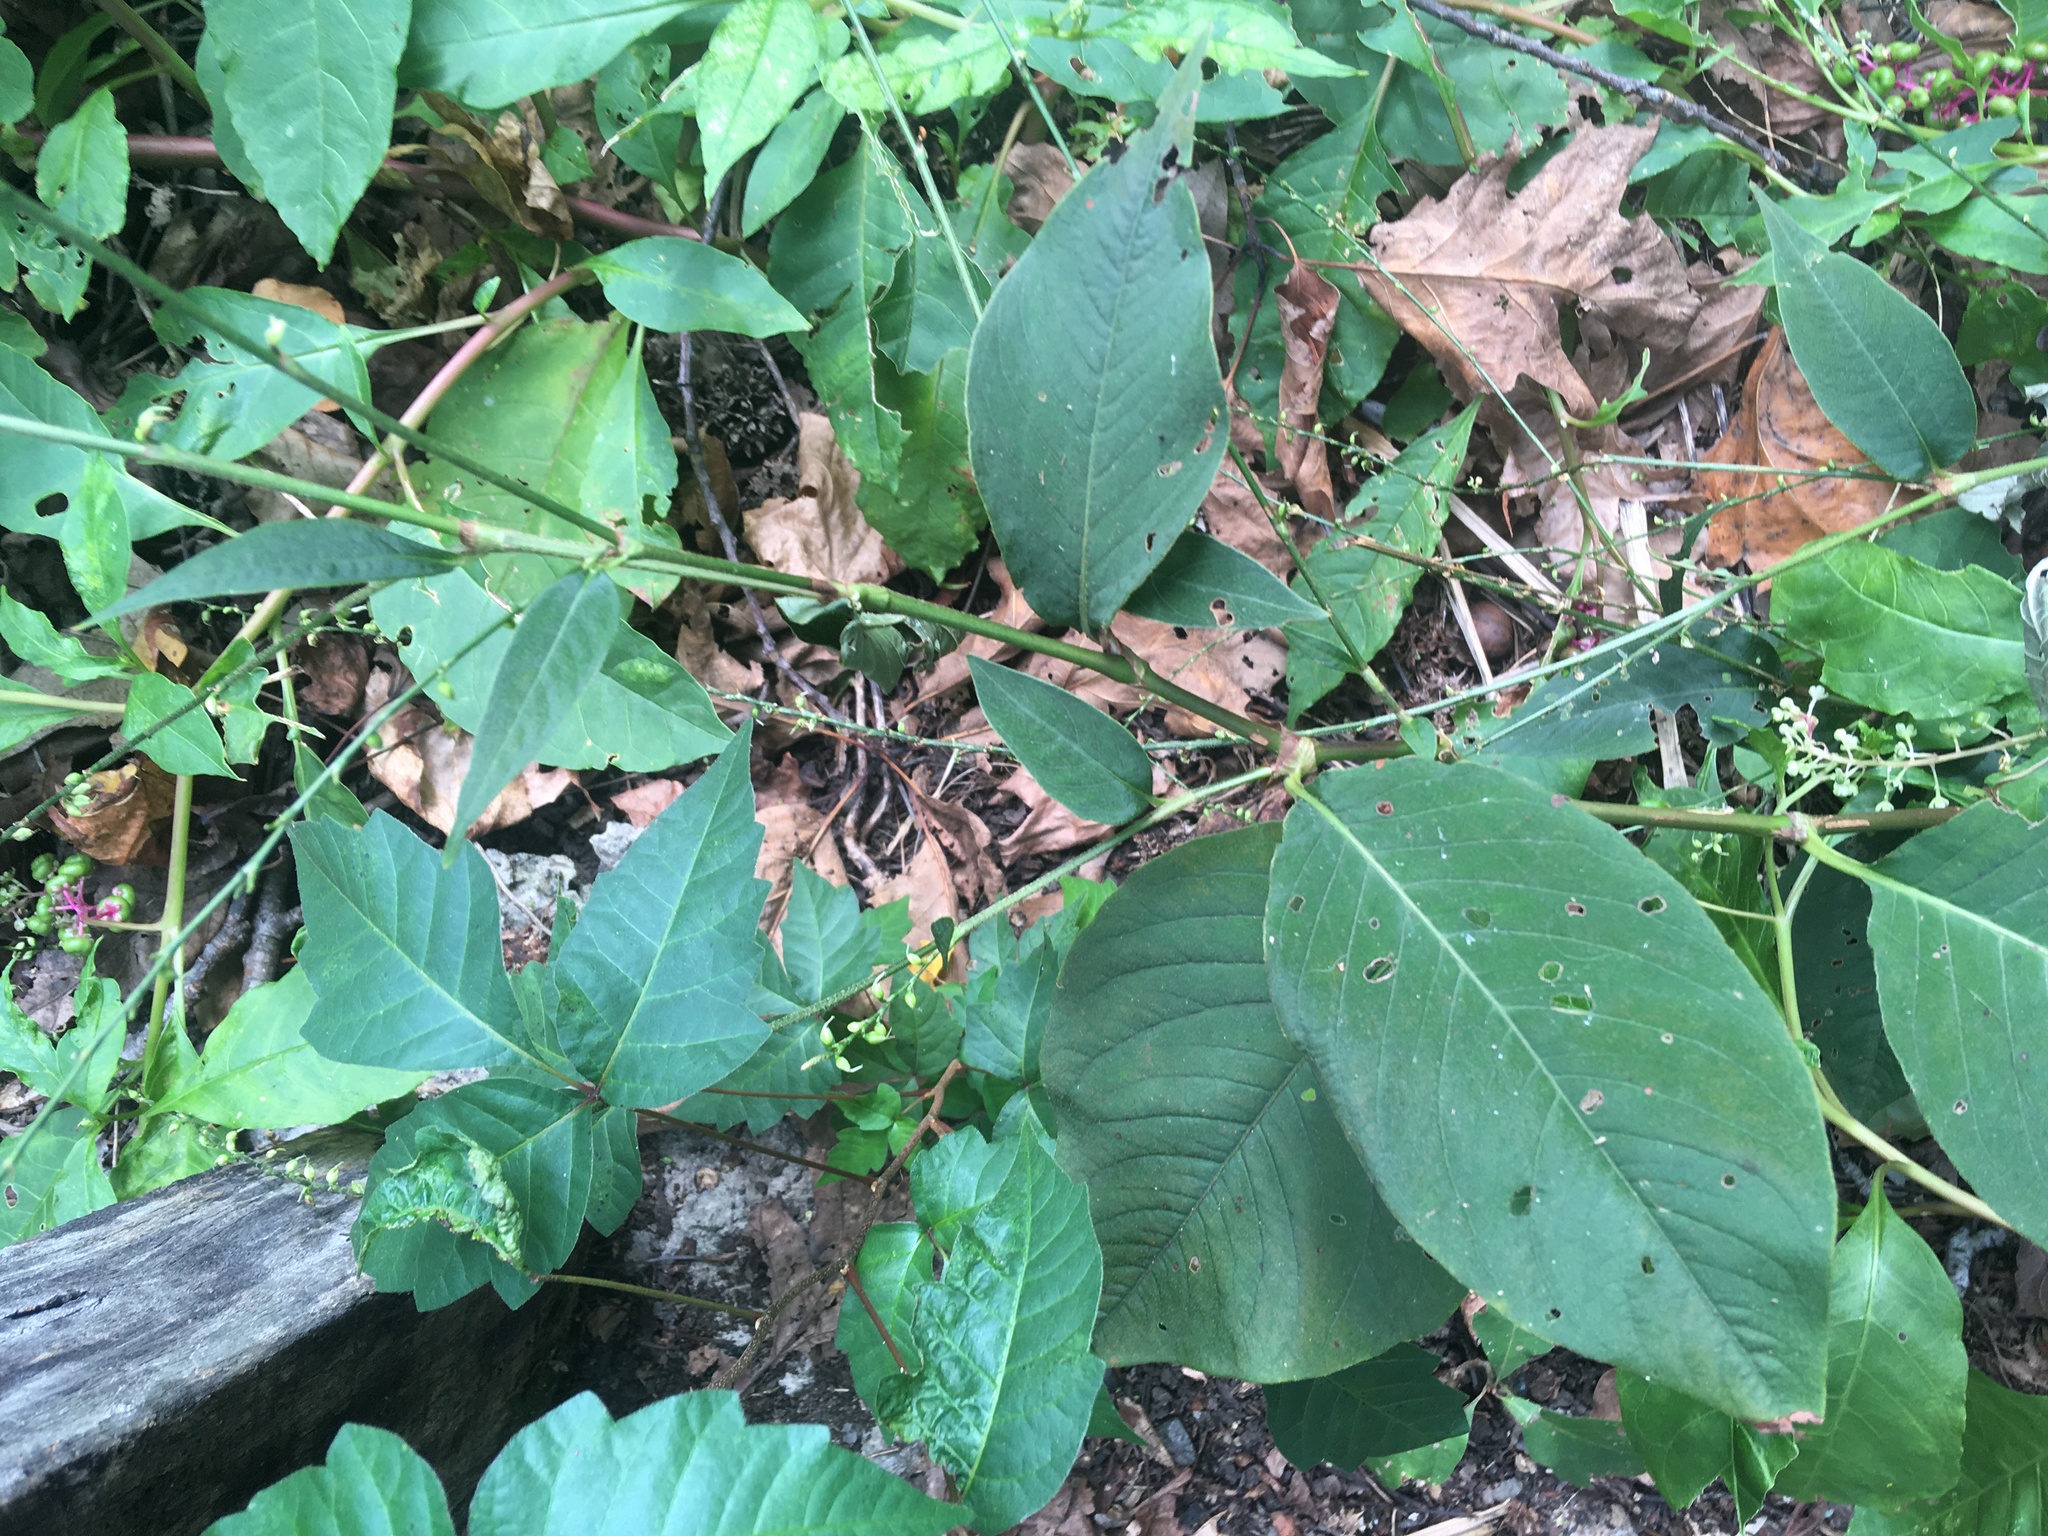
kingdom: Plantae
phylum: Tracheophyta
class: Magnoliopsida
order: Caryophyllales
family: Polygonaceae
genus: Persicaria
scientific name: Persicaria virginiana
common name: Jumpseed
